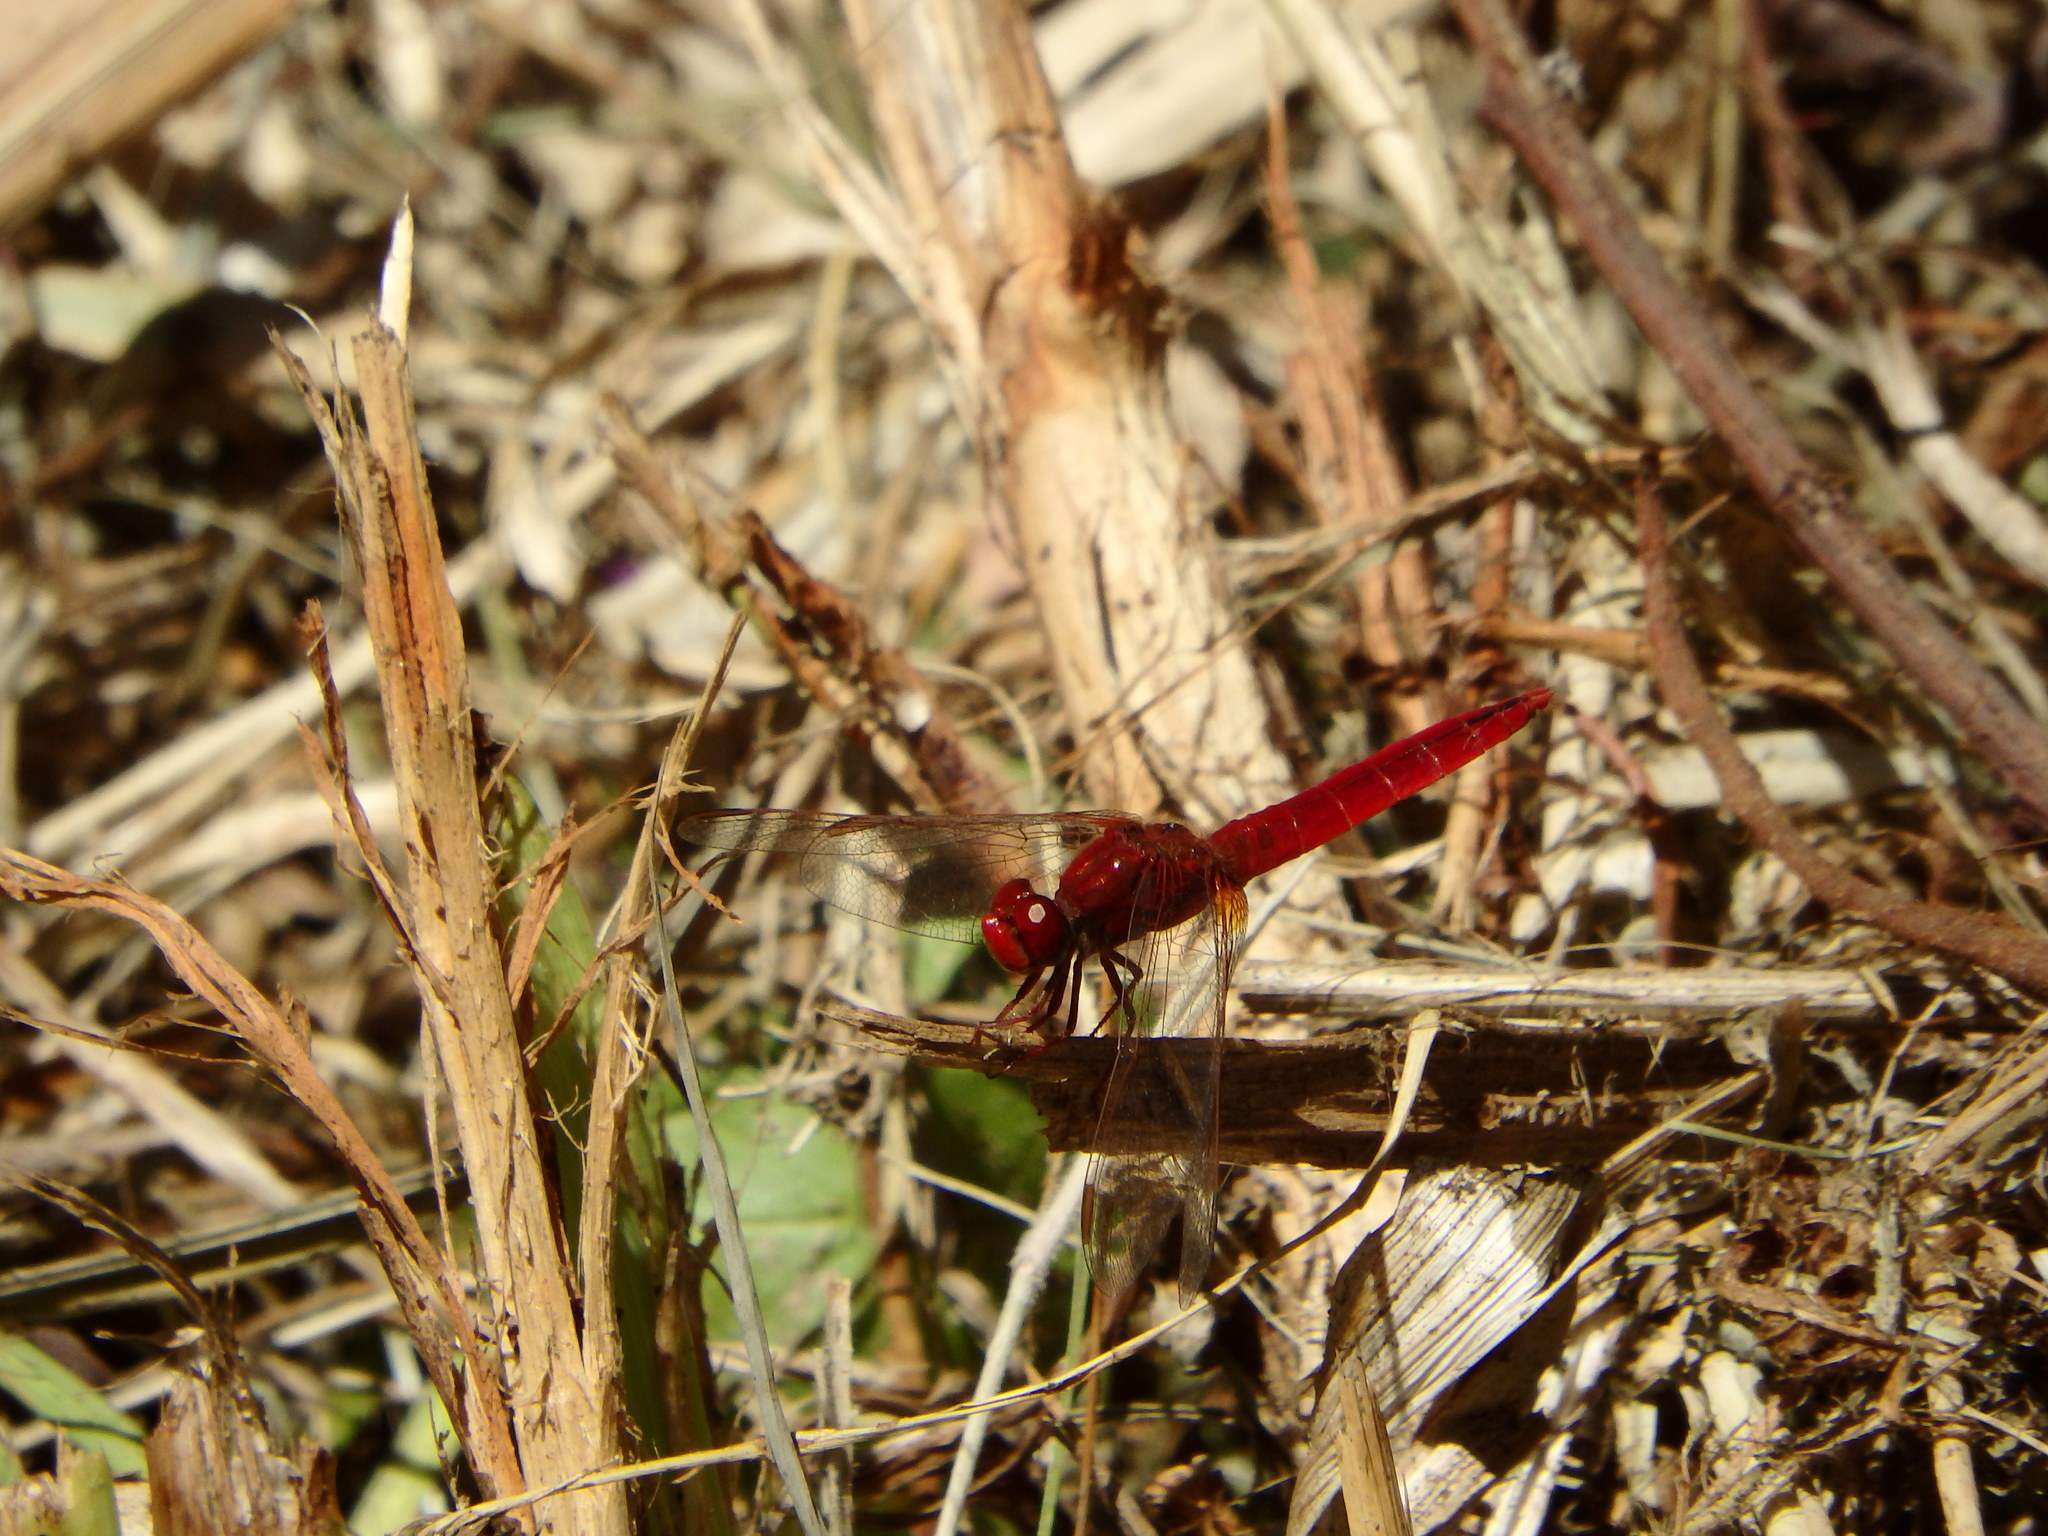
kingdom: Animalia
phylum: Arthropoda
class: Insecta
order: Odonata
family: Libellulidae
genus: Crocothemis
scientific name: Crocothemis erythraea
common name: Scarlet dragonfly
